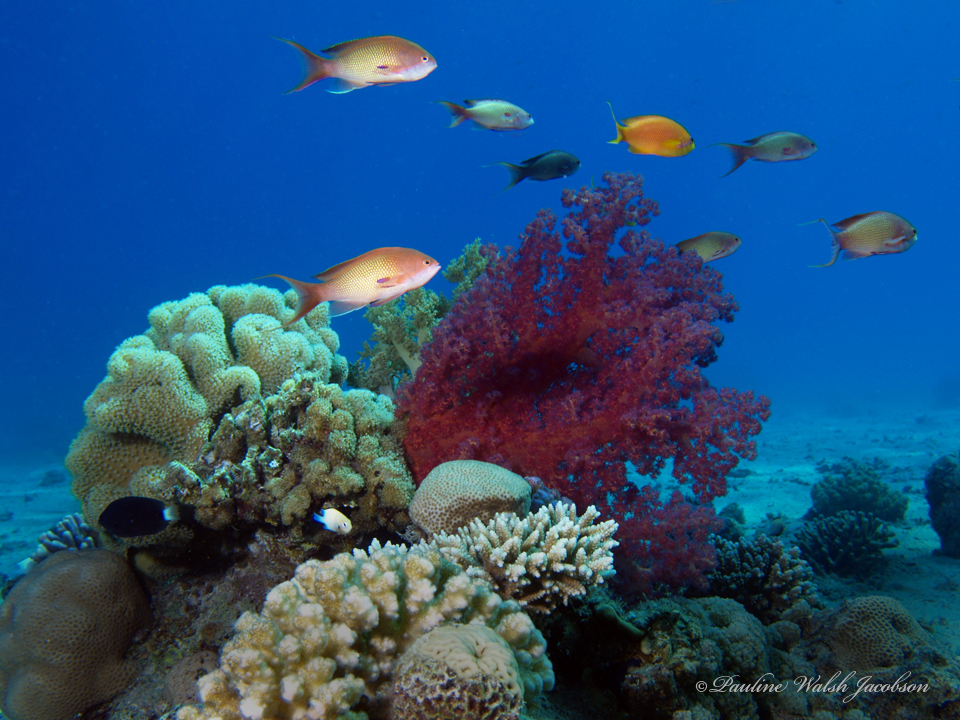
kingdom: Animalia
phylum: Chordata
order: Perciformes
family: Serranidae
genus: Pseudanthias
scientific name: Pseudanthias squamipinnis
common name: Scalefin anthias
